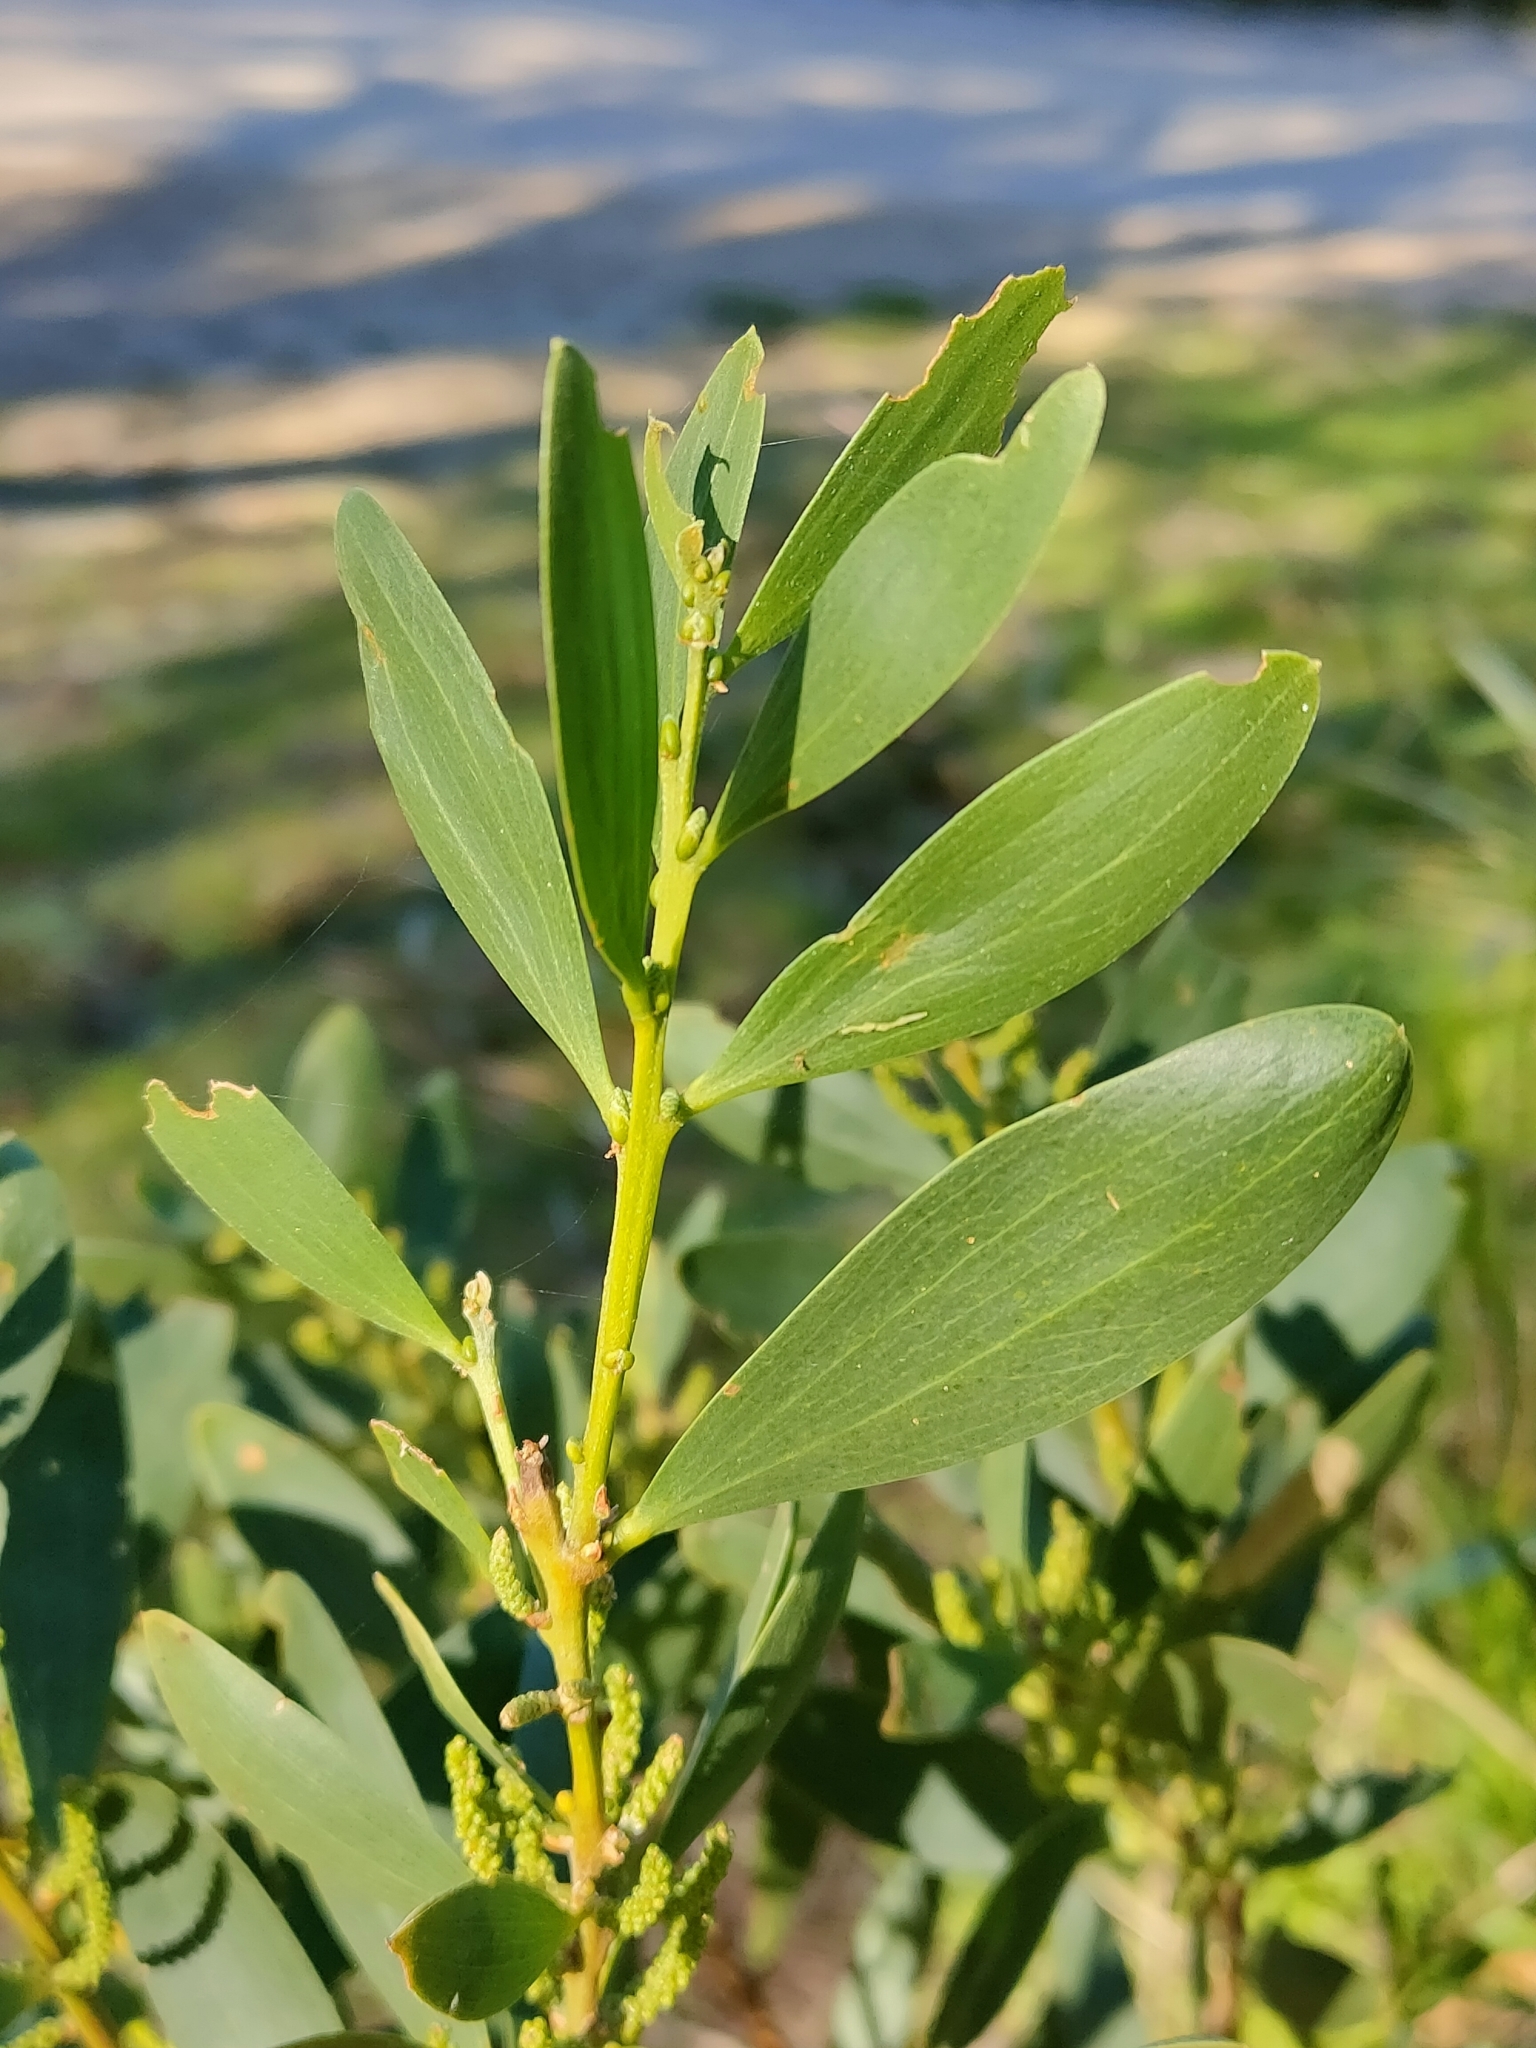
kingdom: Plantae
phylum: Tracheophyta
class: Magnoliopsida
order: Fabales
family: Fabaceae
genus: Acacia
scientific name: Acacia longifolia
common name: Sydney golden wattle
